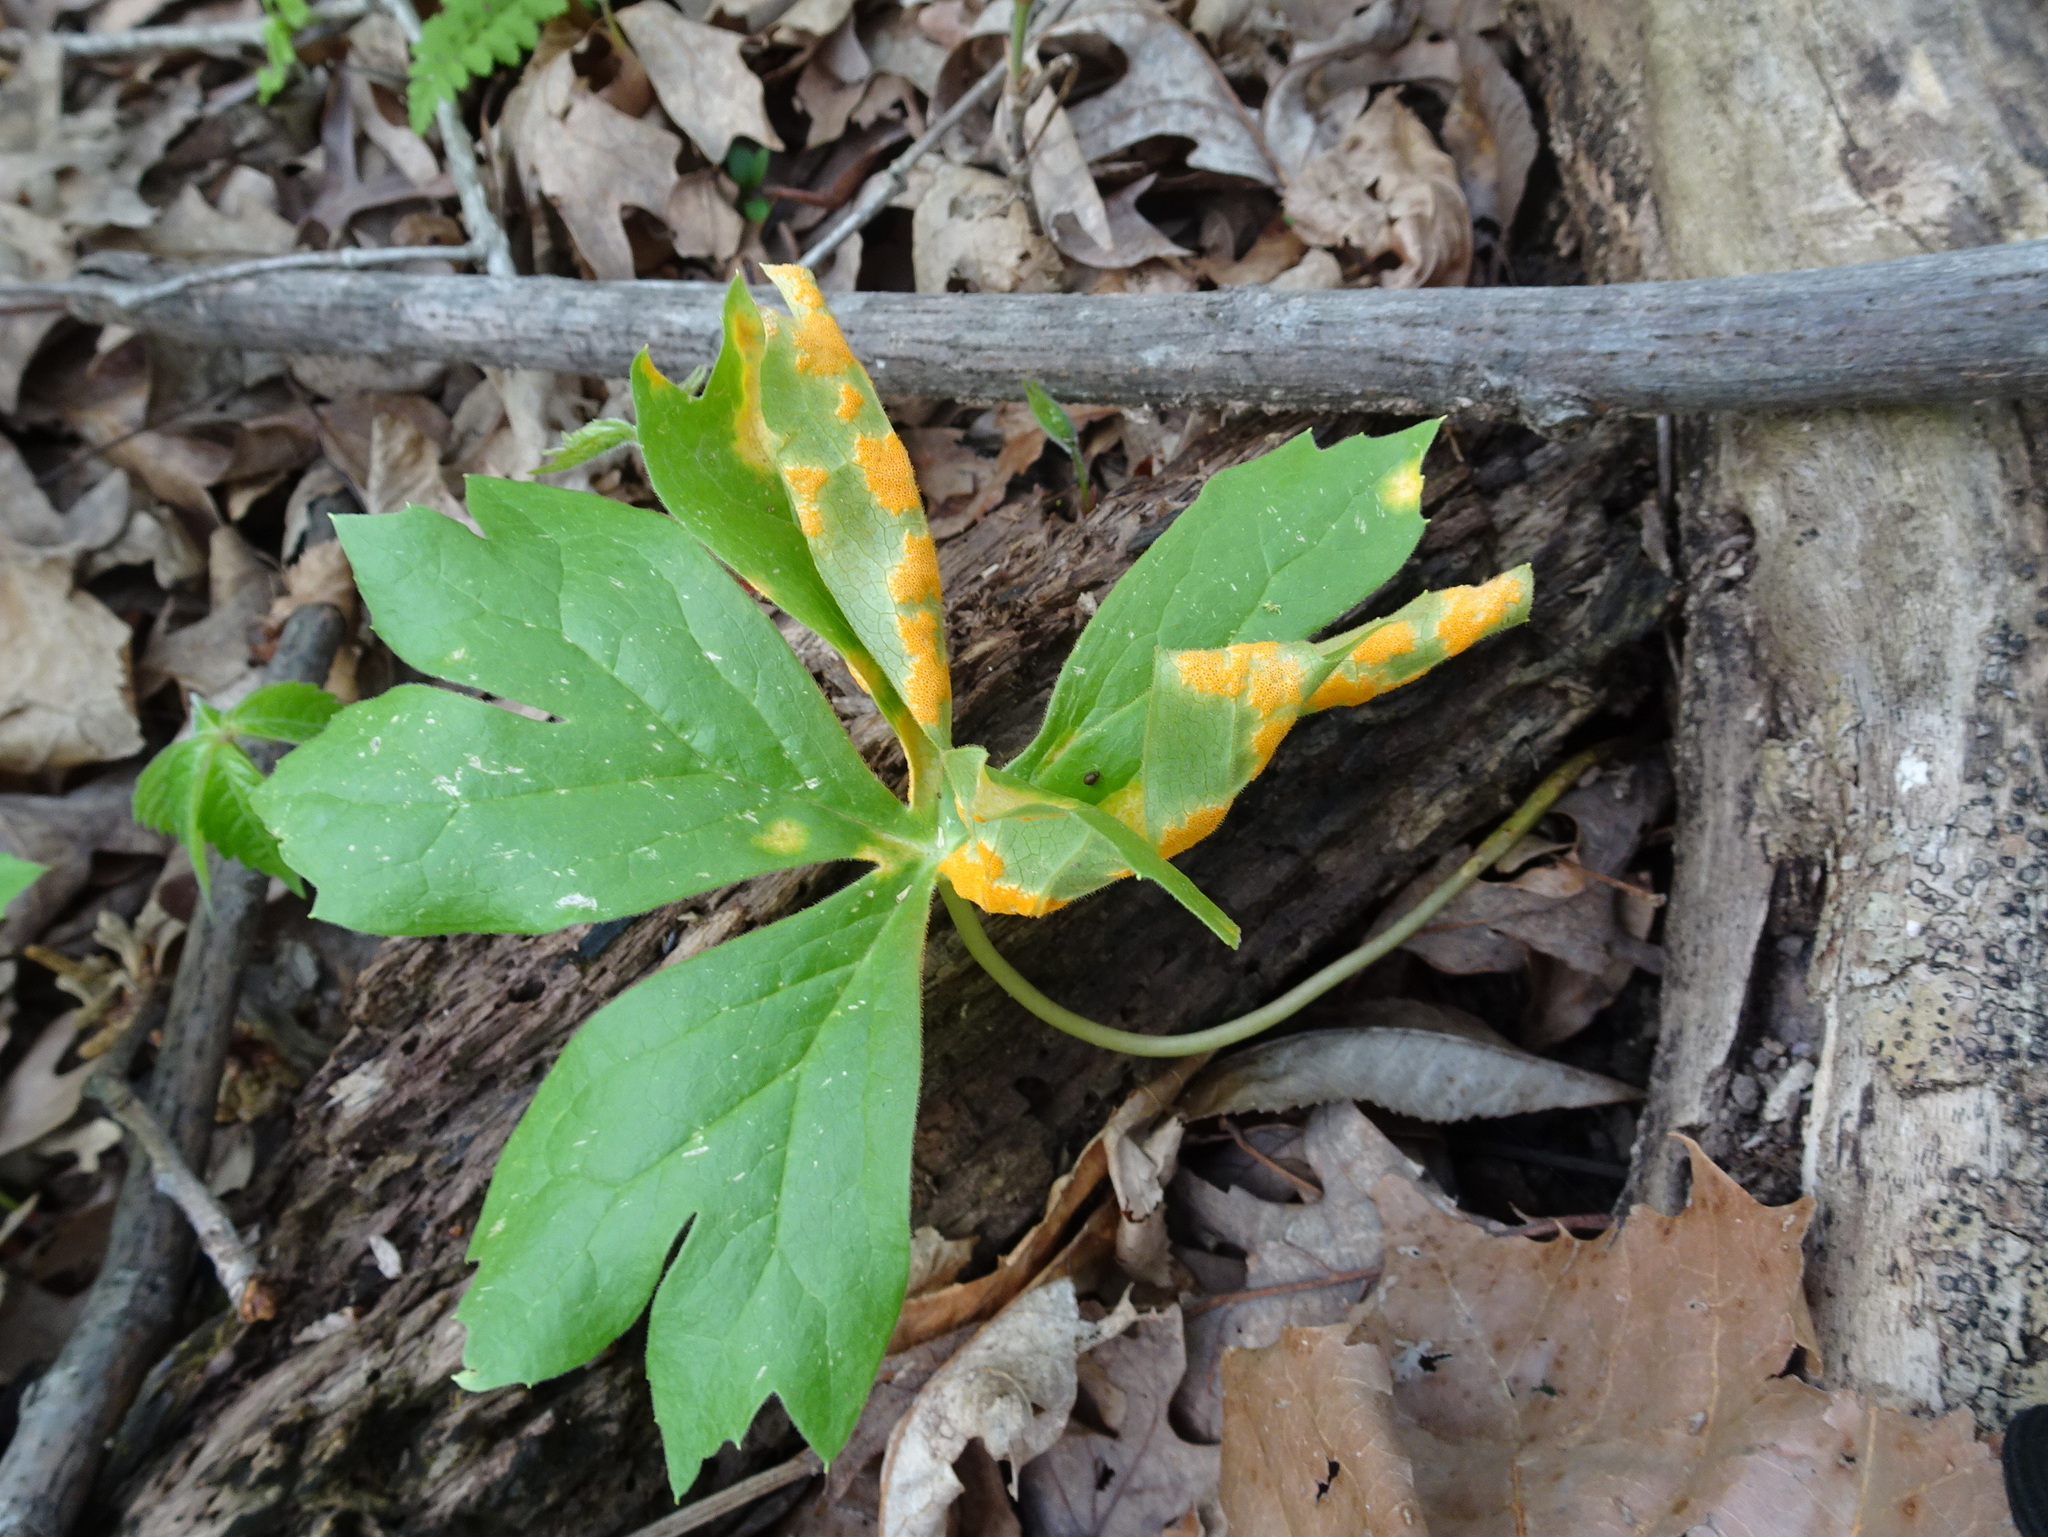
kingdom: Fungi
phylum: Basidiomycota
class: Pucciniomycetes
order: Pucciniales
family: Pucciniaceae
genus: Puccinia
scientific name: Puccinia podophylli
